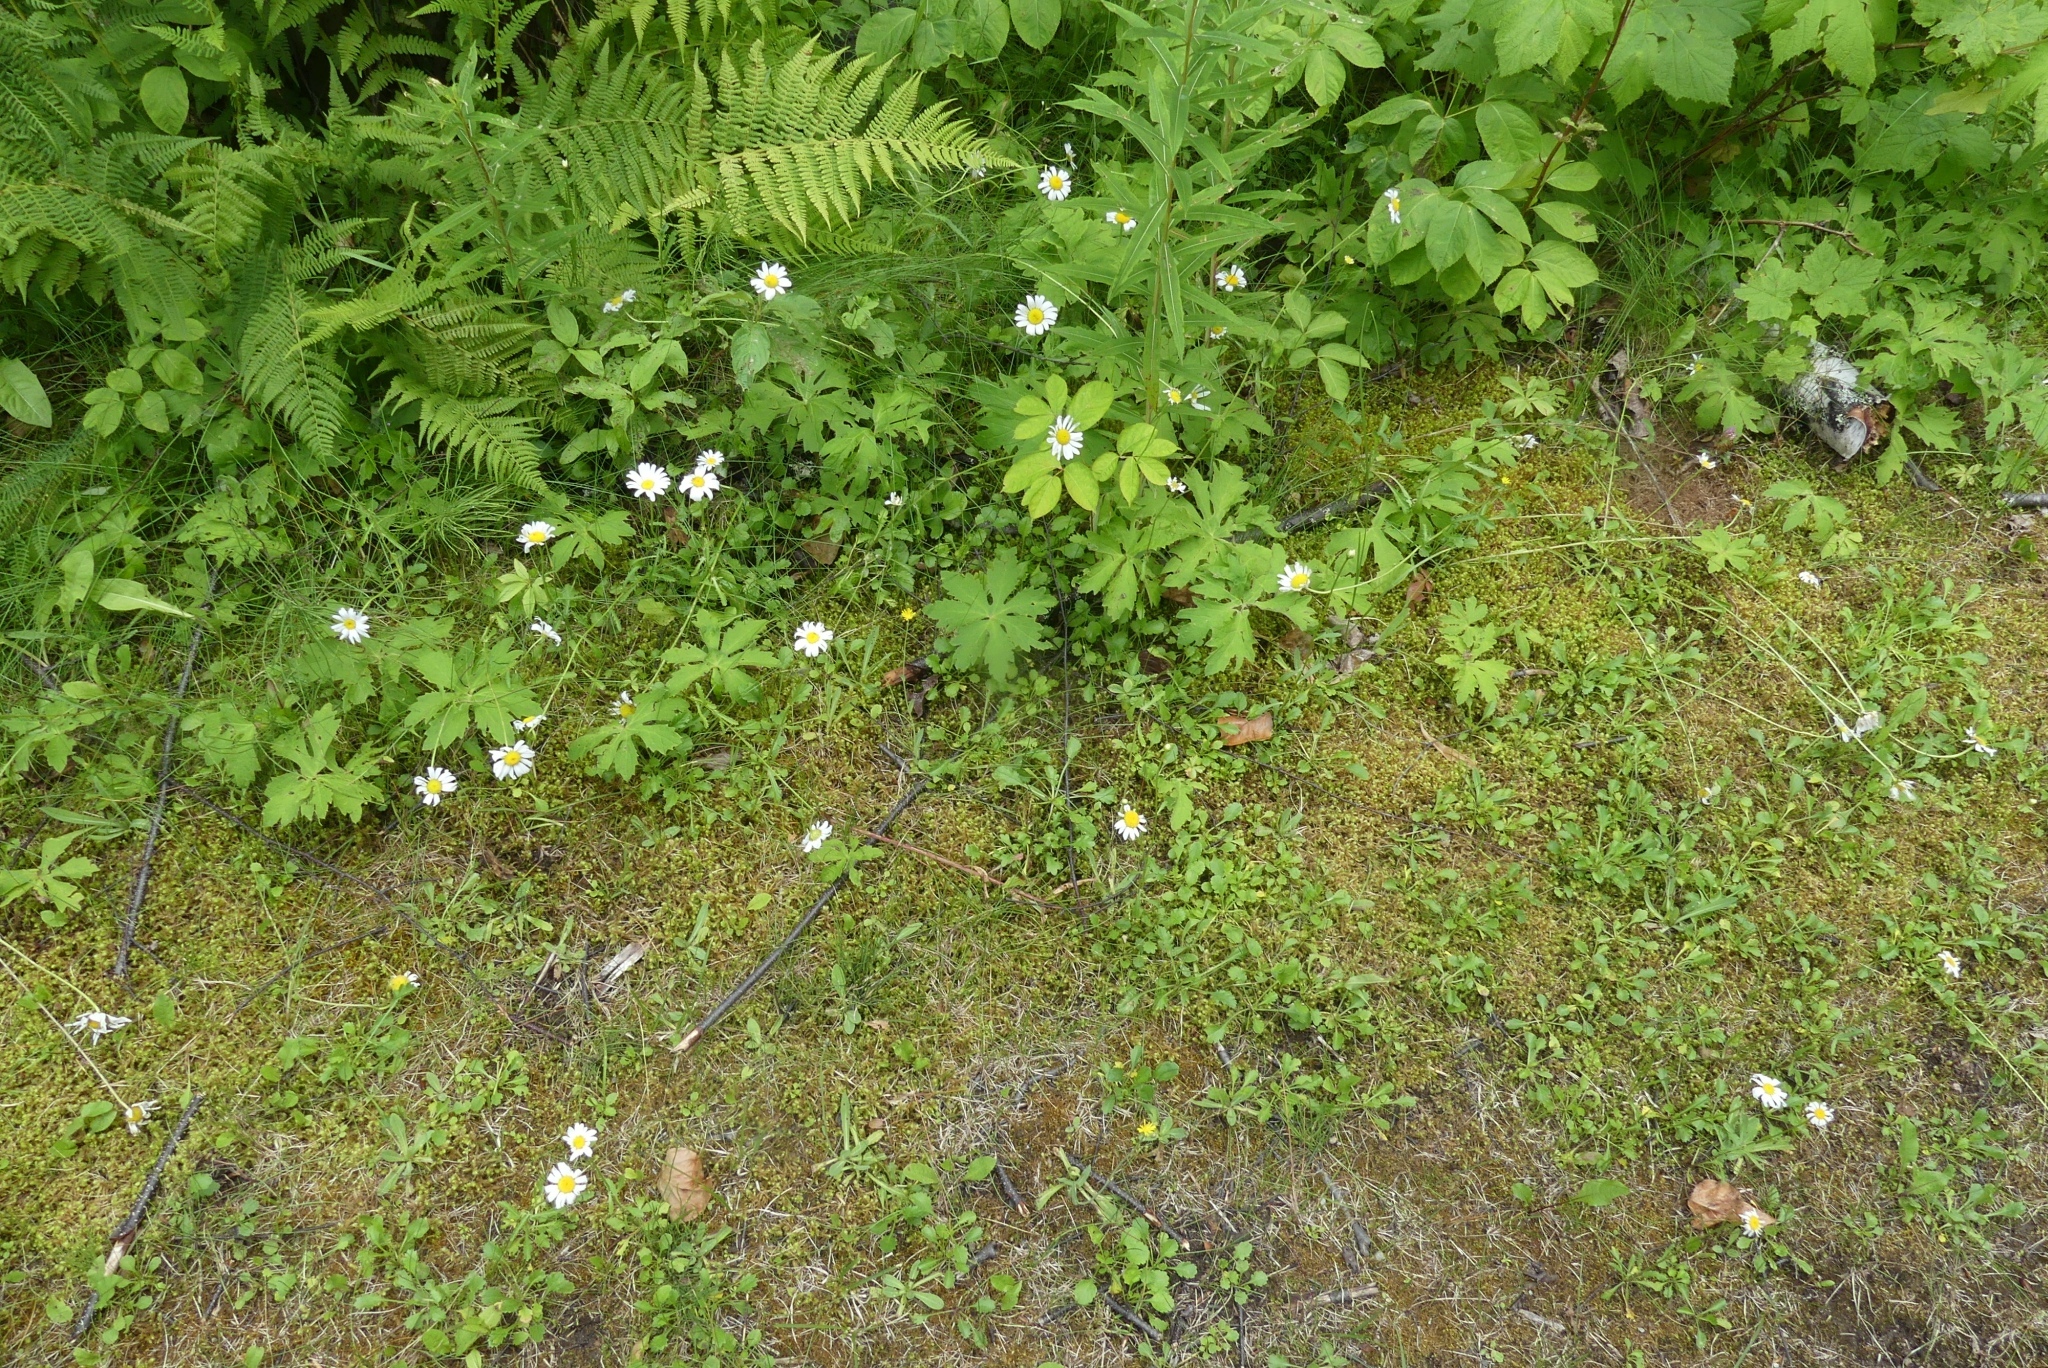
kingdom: Plantae
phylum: Tracheophyta
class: Magnoliopsida
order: Asterales
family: Asteraceae
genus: Petasites
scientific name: Petasites frigidus
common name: Arctic butterbur
